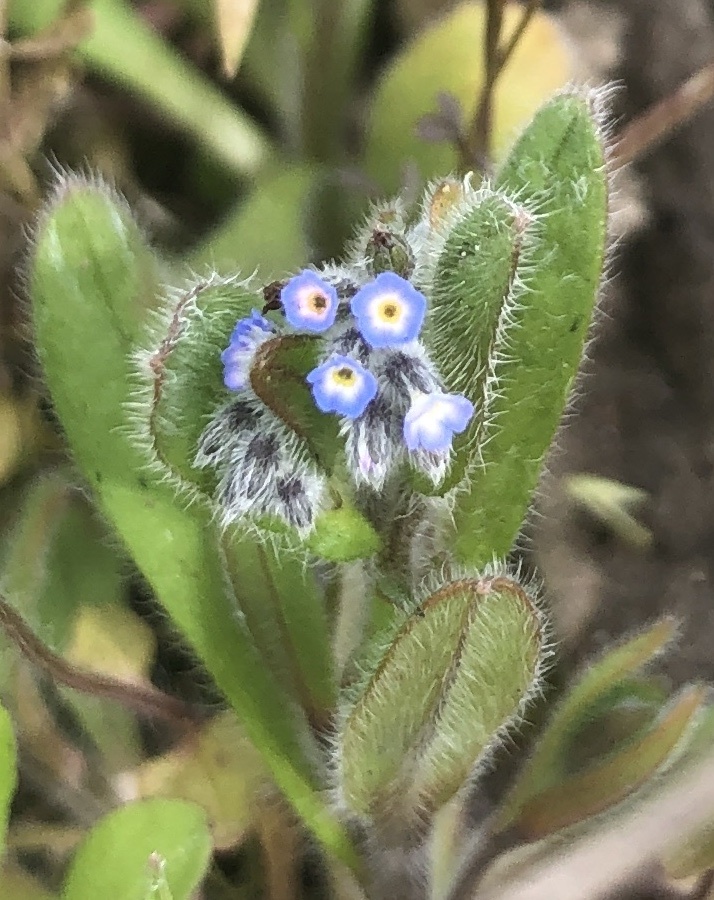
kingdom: Plantae
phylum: Tracheophyta
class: Magnoliopsida
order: Boraginales
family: Boraginaceae
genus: Myosotis
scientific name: Myosotis ramosissima
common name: Early forget-me-not
